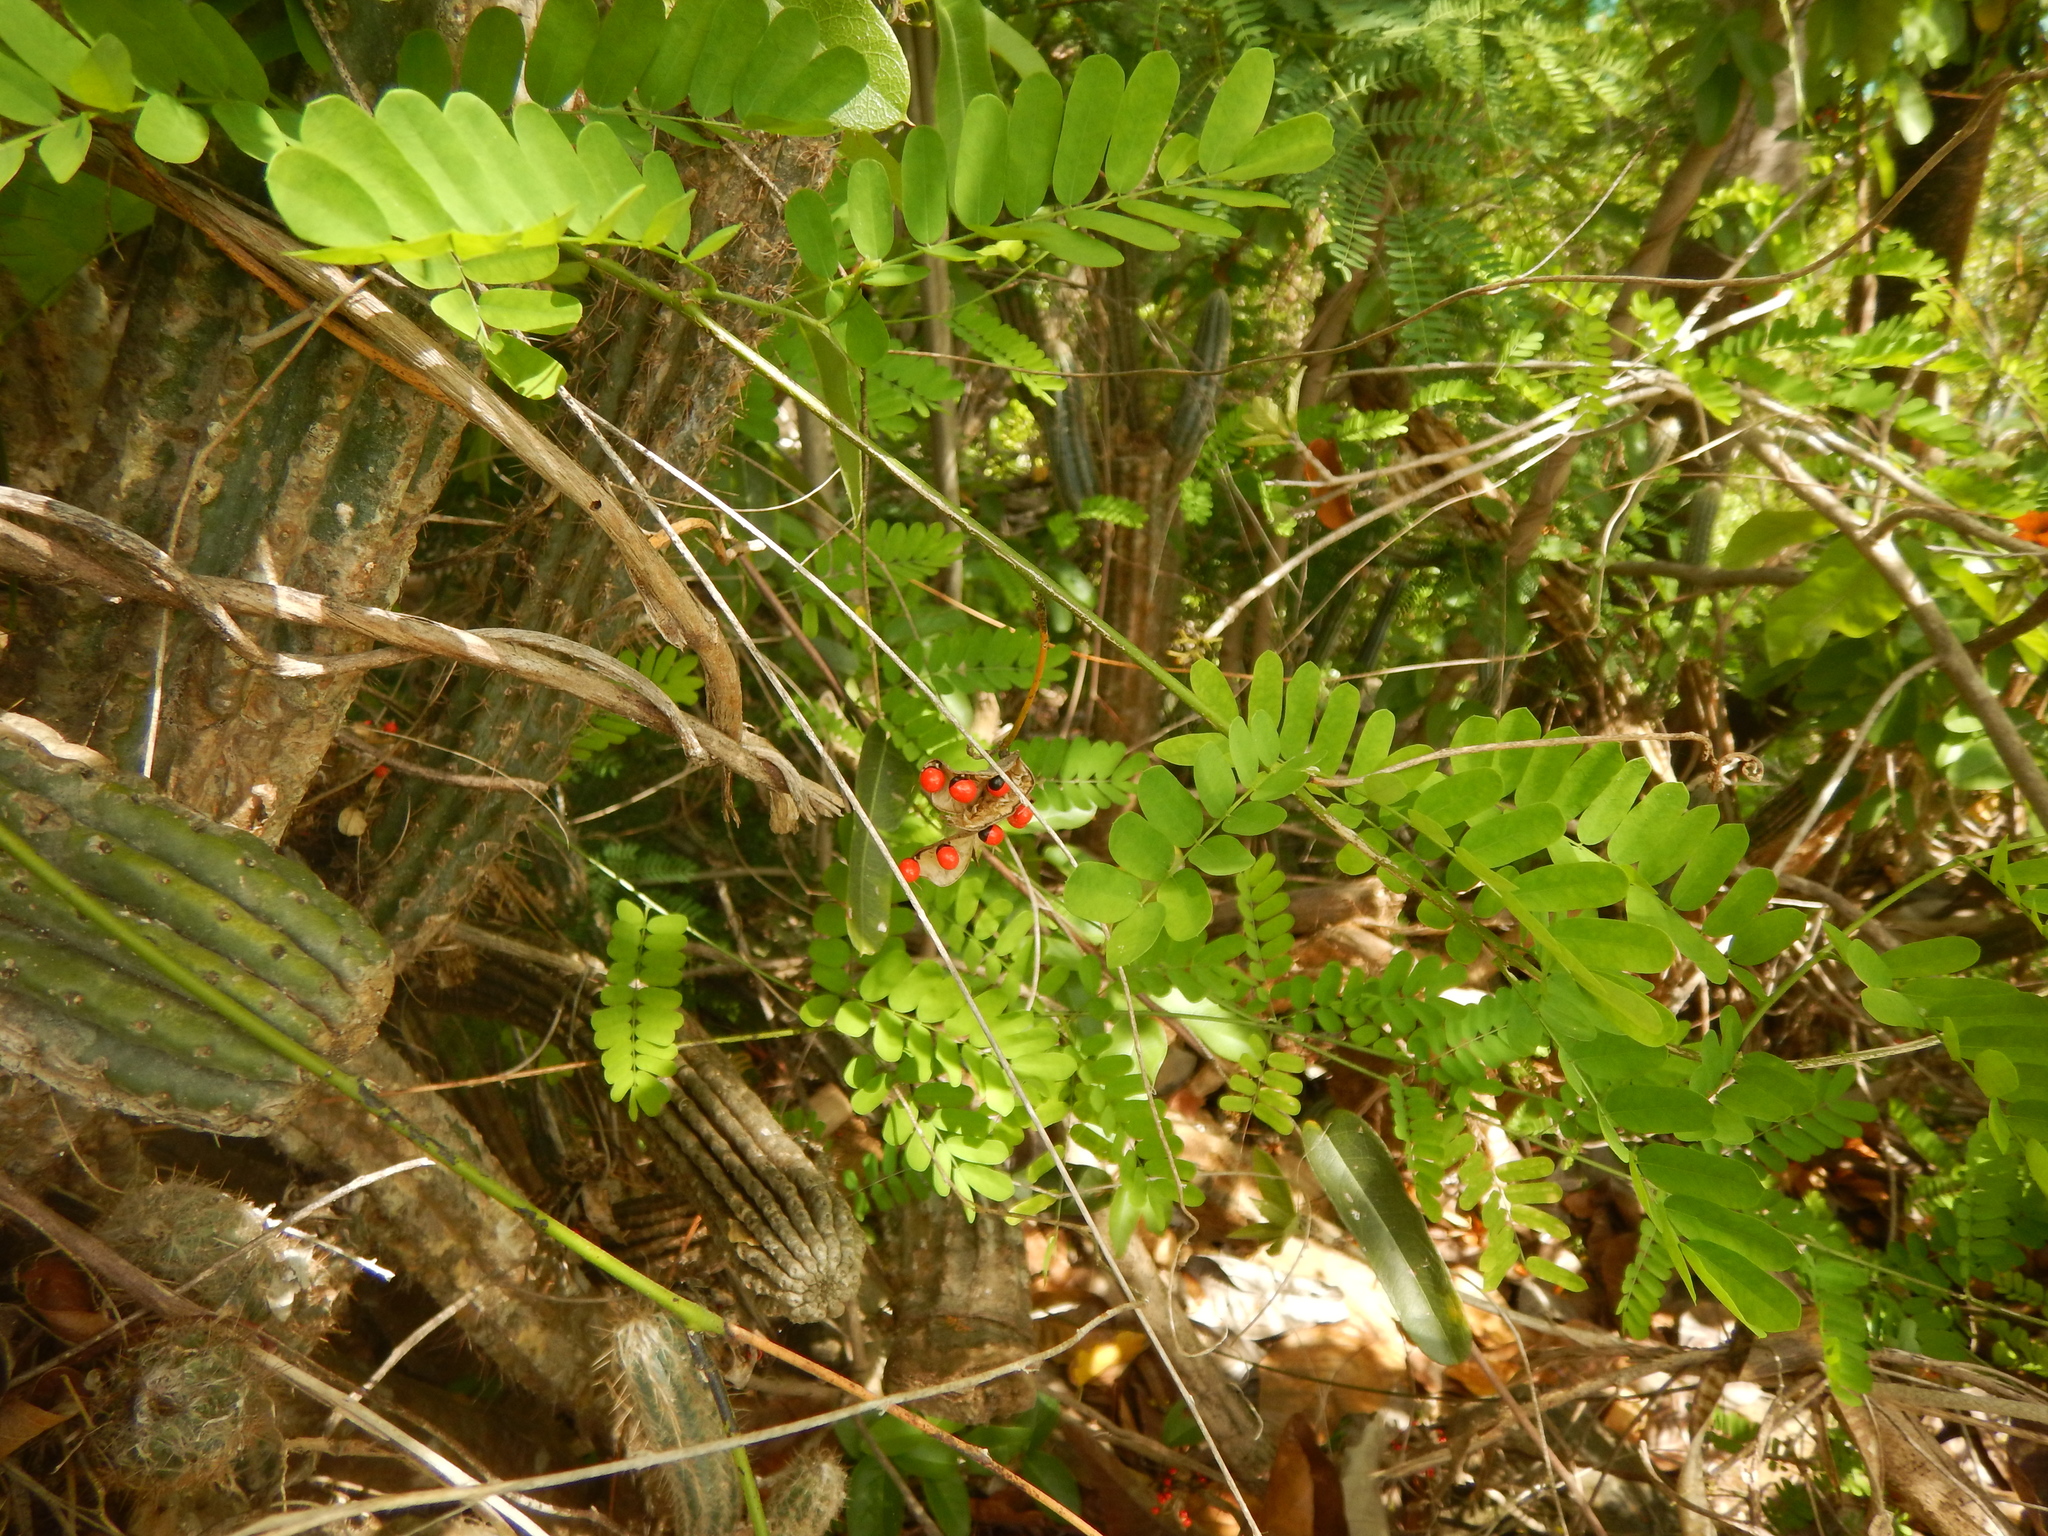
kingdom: Plantae
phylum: Tracheophyta
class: Magnoliopsida
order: Fabales
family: Fabaceae
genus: Abrus
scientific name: Abrus precatorius
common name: Rosarypea
